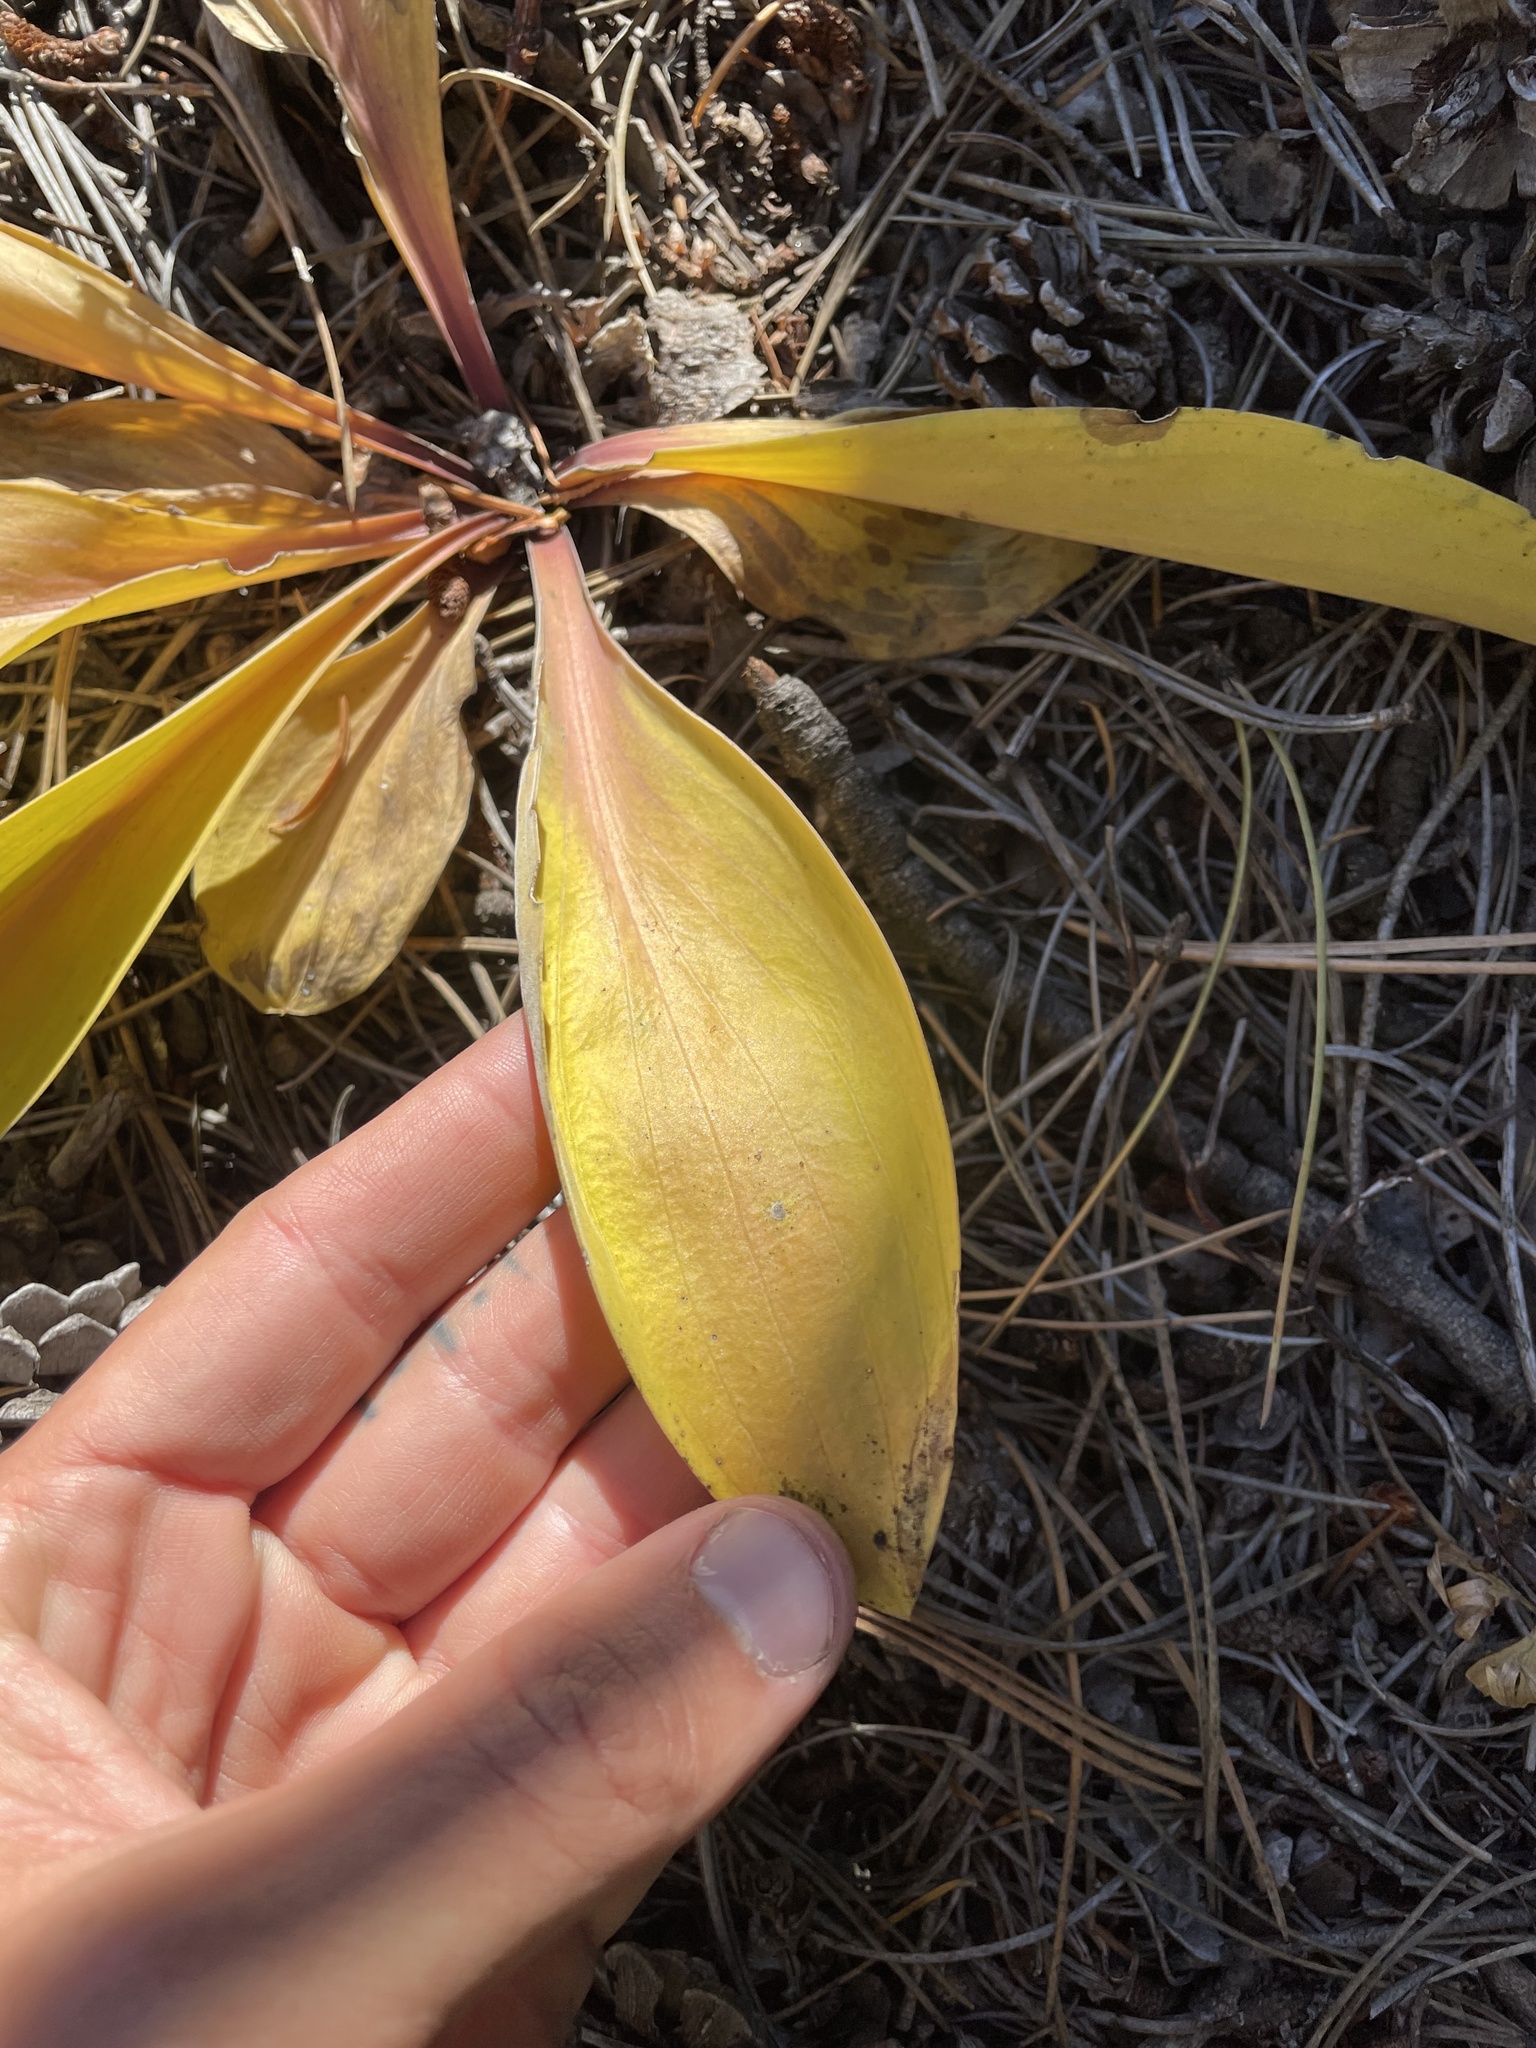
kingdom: Plantae
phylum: Tracheophyta
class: Magnoliopsida
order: Gentianales
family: Gentianaceae
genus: Frasera
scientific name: Frasera speciosa
